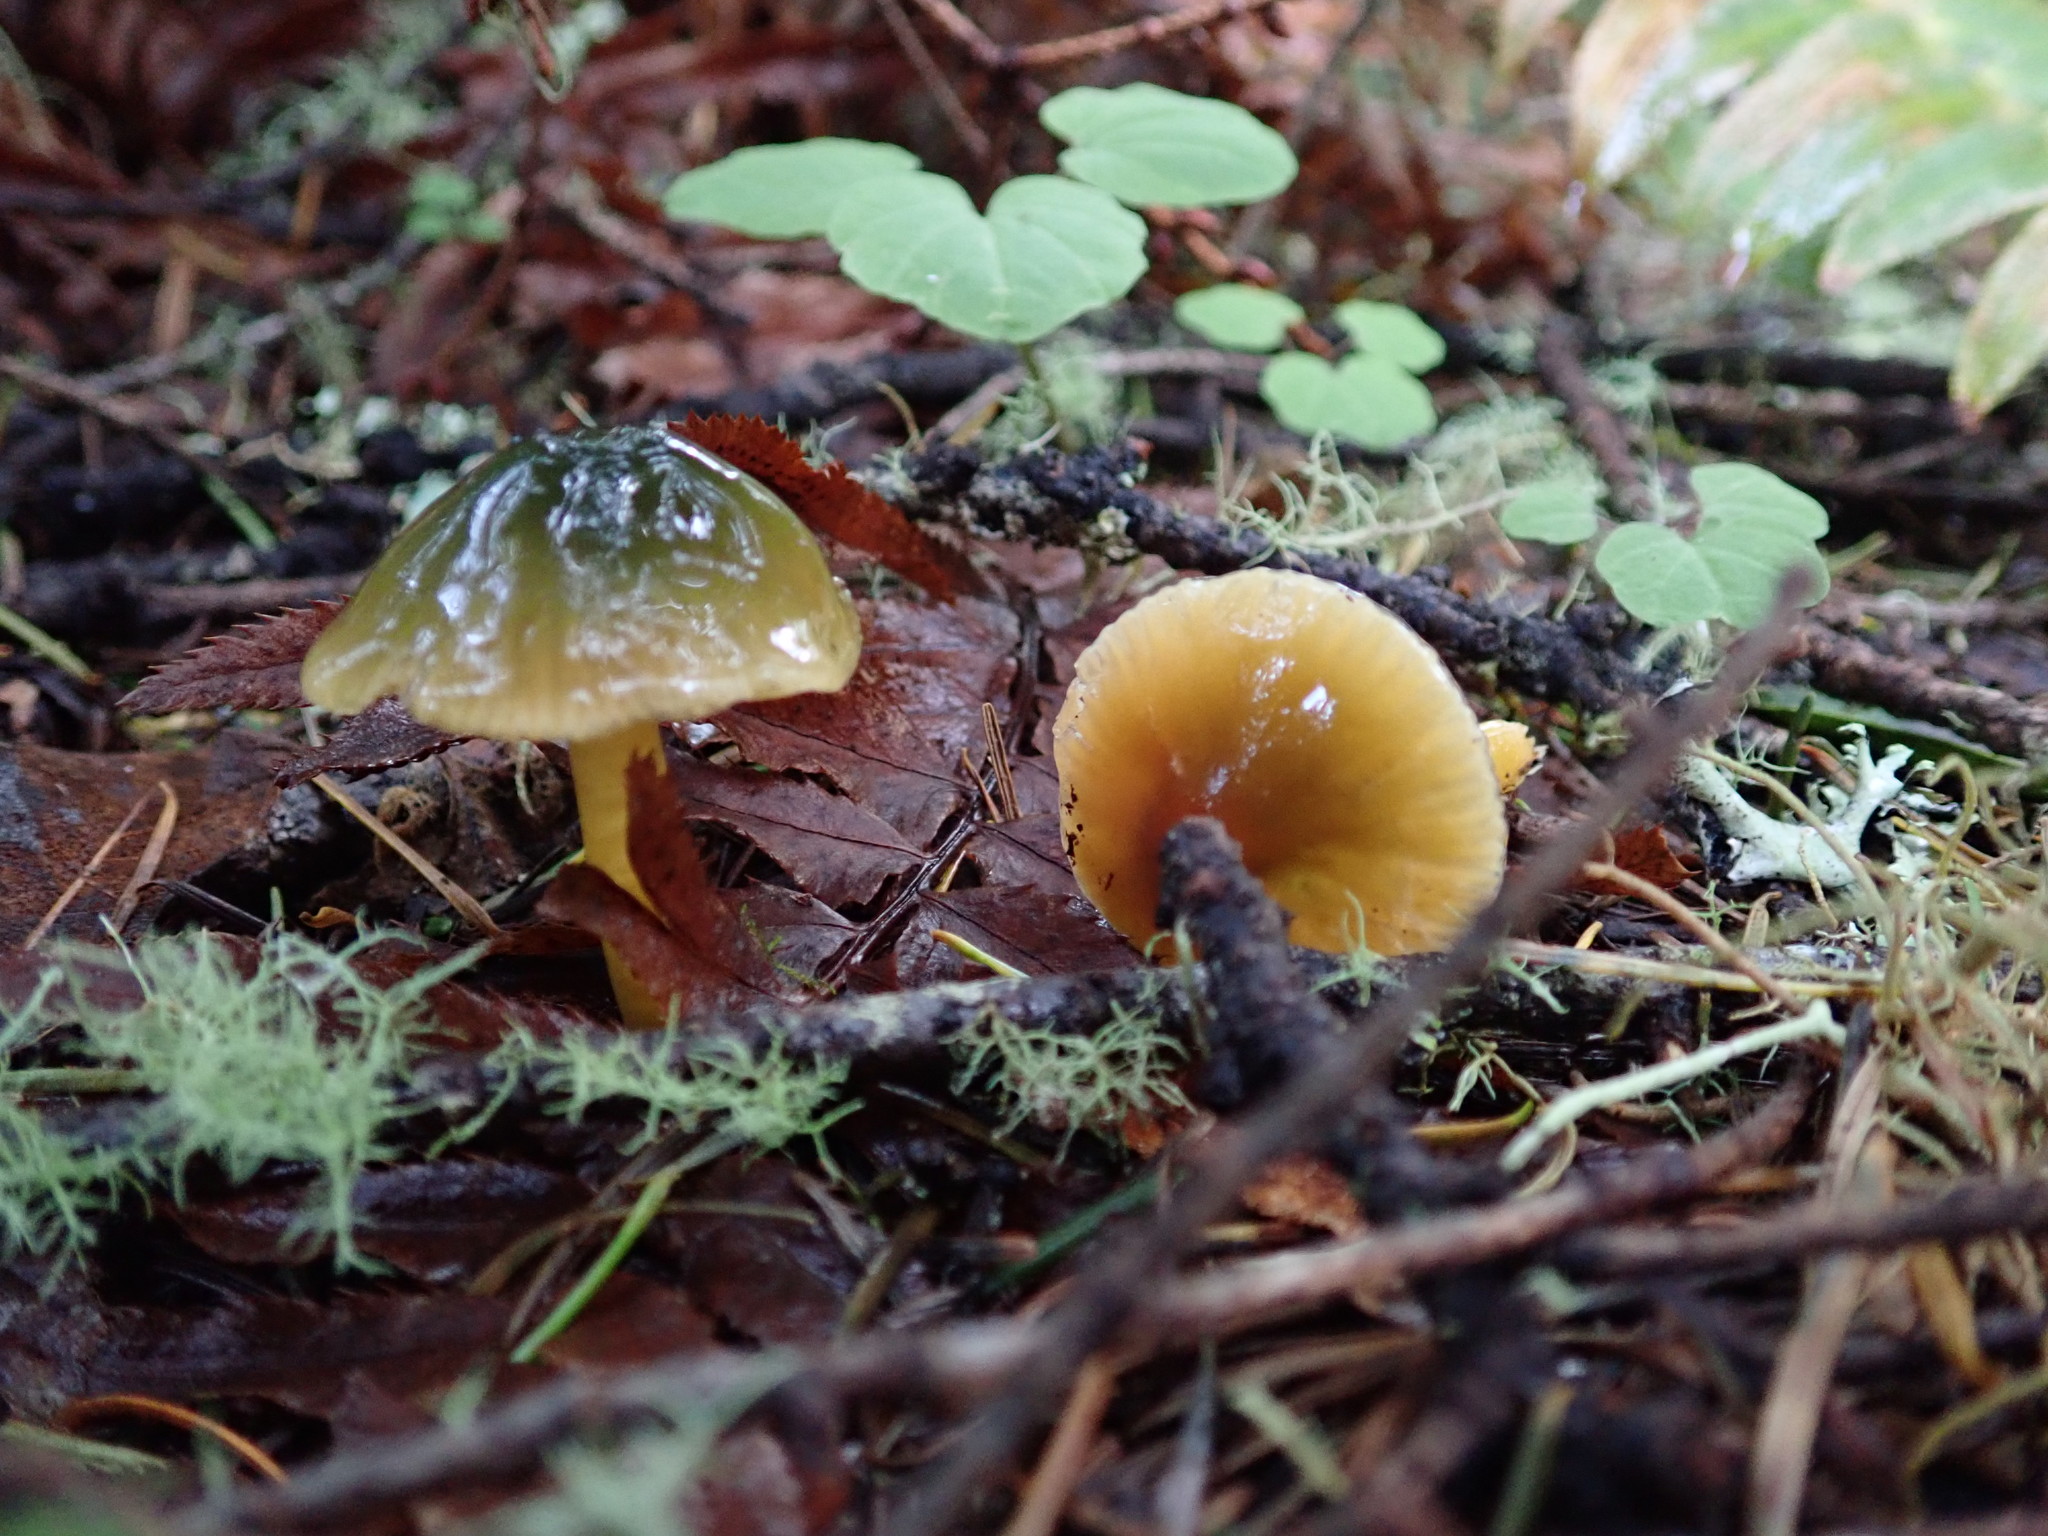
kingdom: Fungi
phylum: Basidiomycota
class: Agaricomycetes
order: Agaricales
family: Hygrophoraceae
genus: Gliophorus
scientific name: Gliophorus psittacinus
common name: Parrot wax-cap
